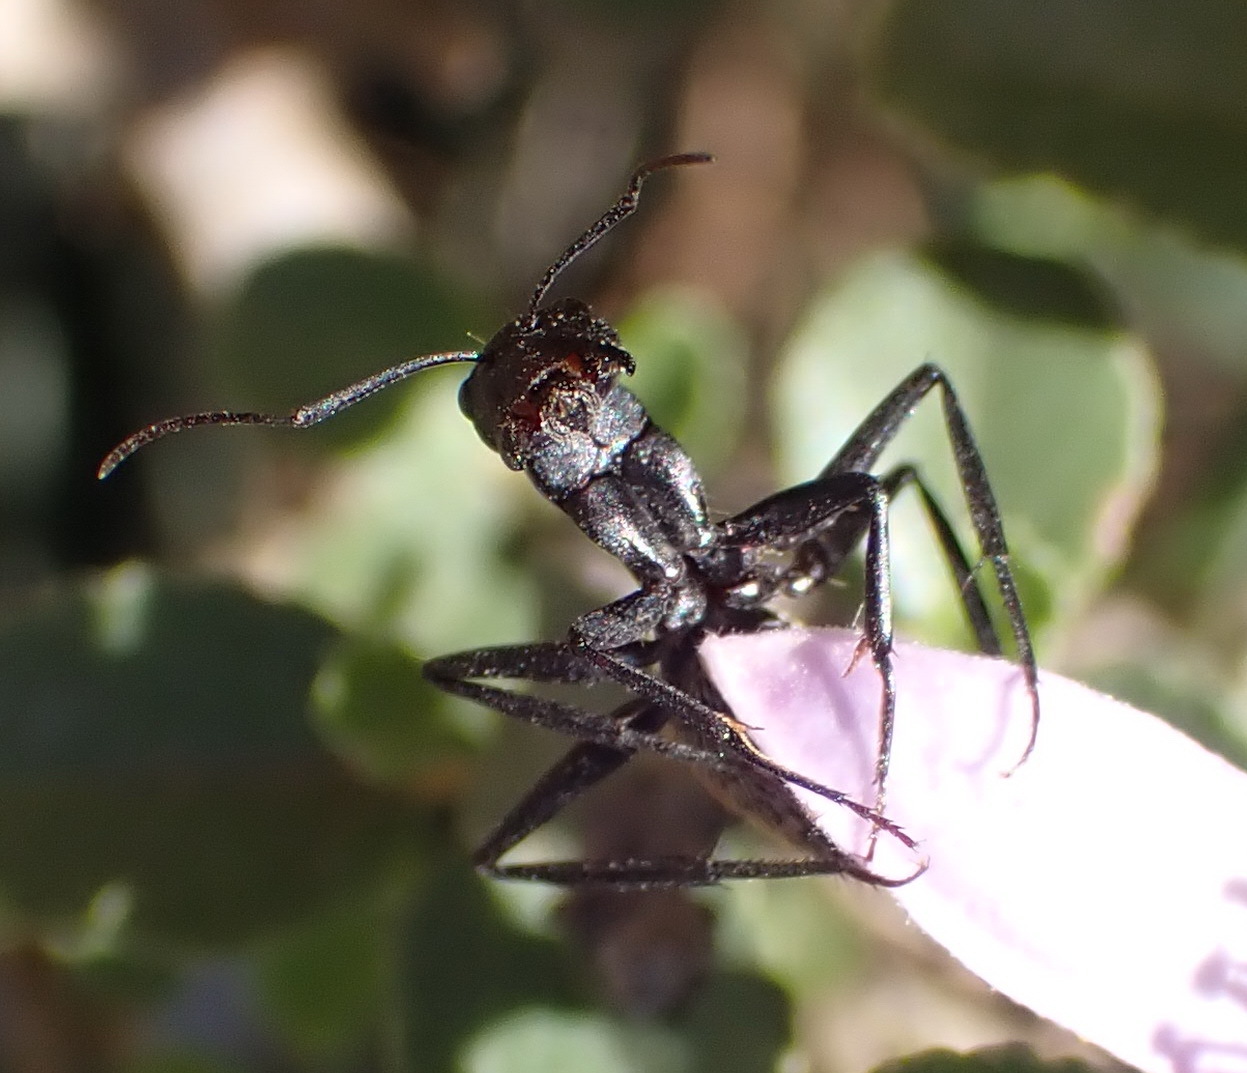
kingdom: Animalia
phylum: Arthropoda
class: Insecta
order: Hymenoptera
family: Formicidae
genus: Camponotus
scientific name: Camponotus fulvopilosus
